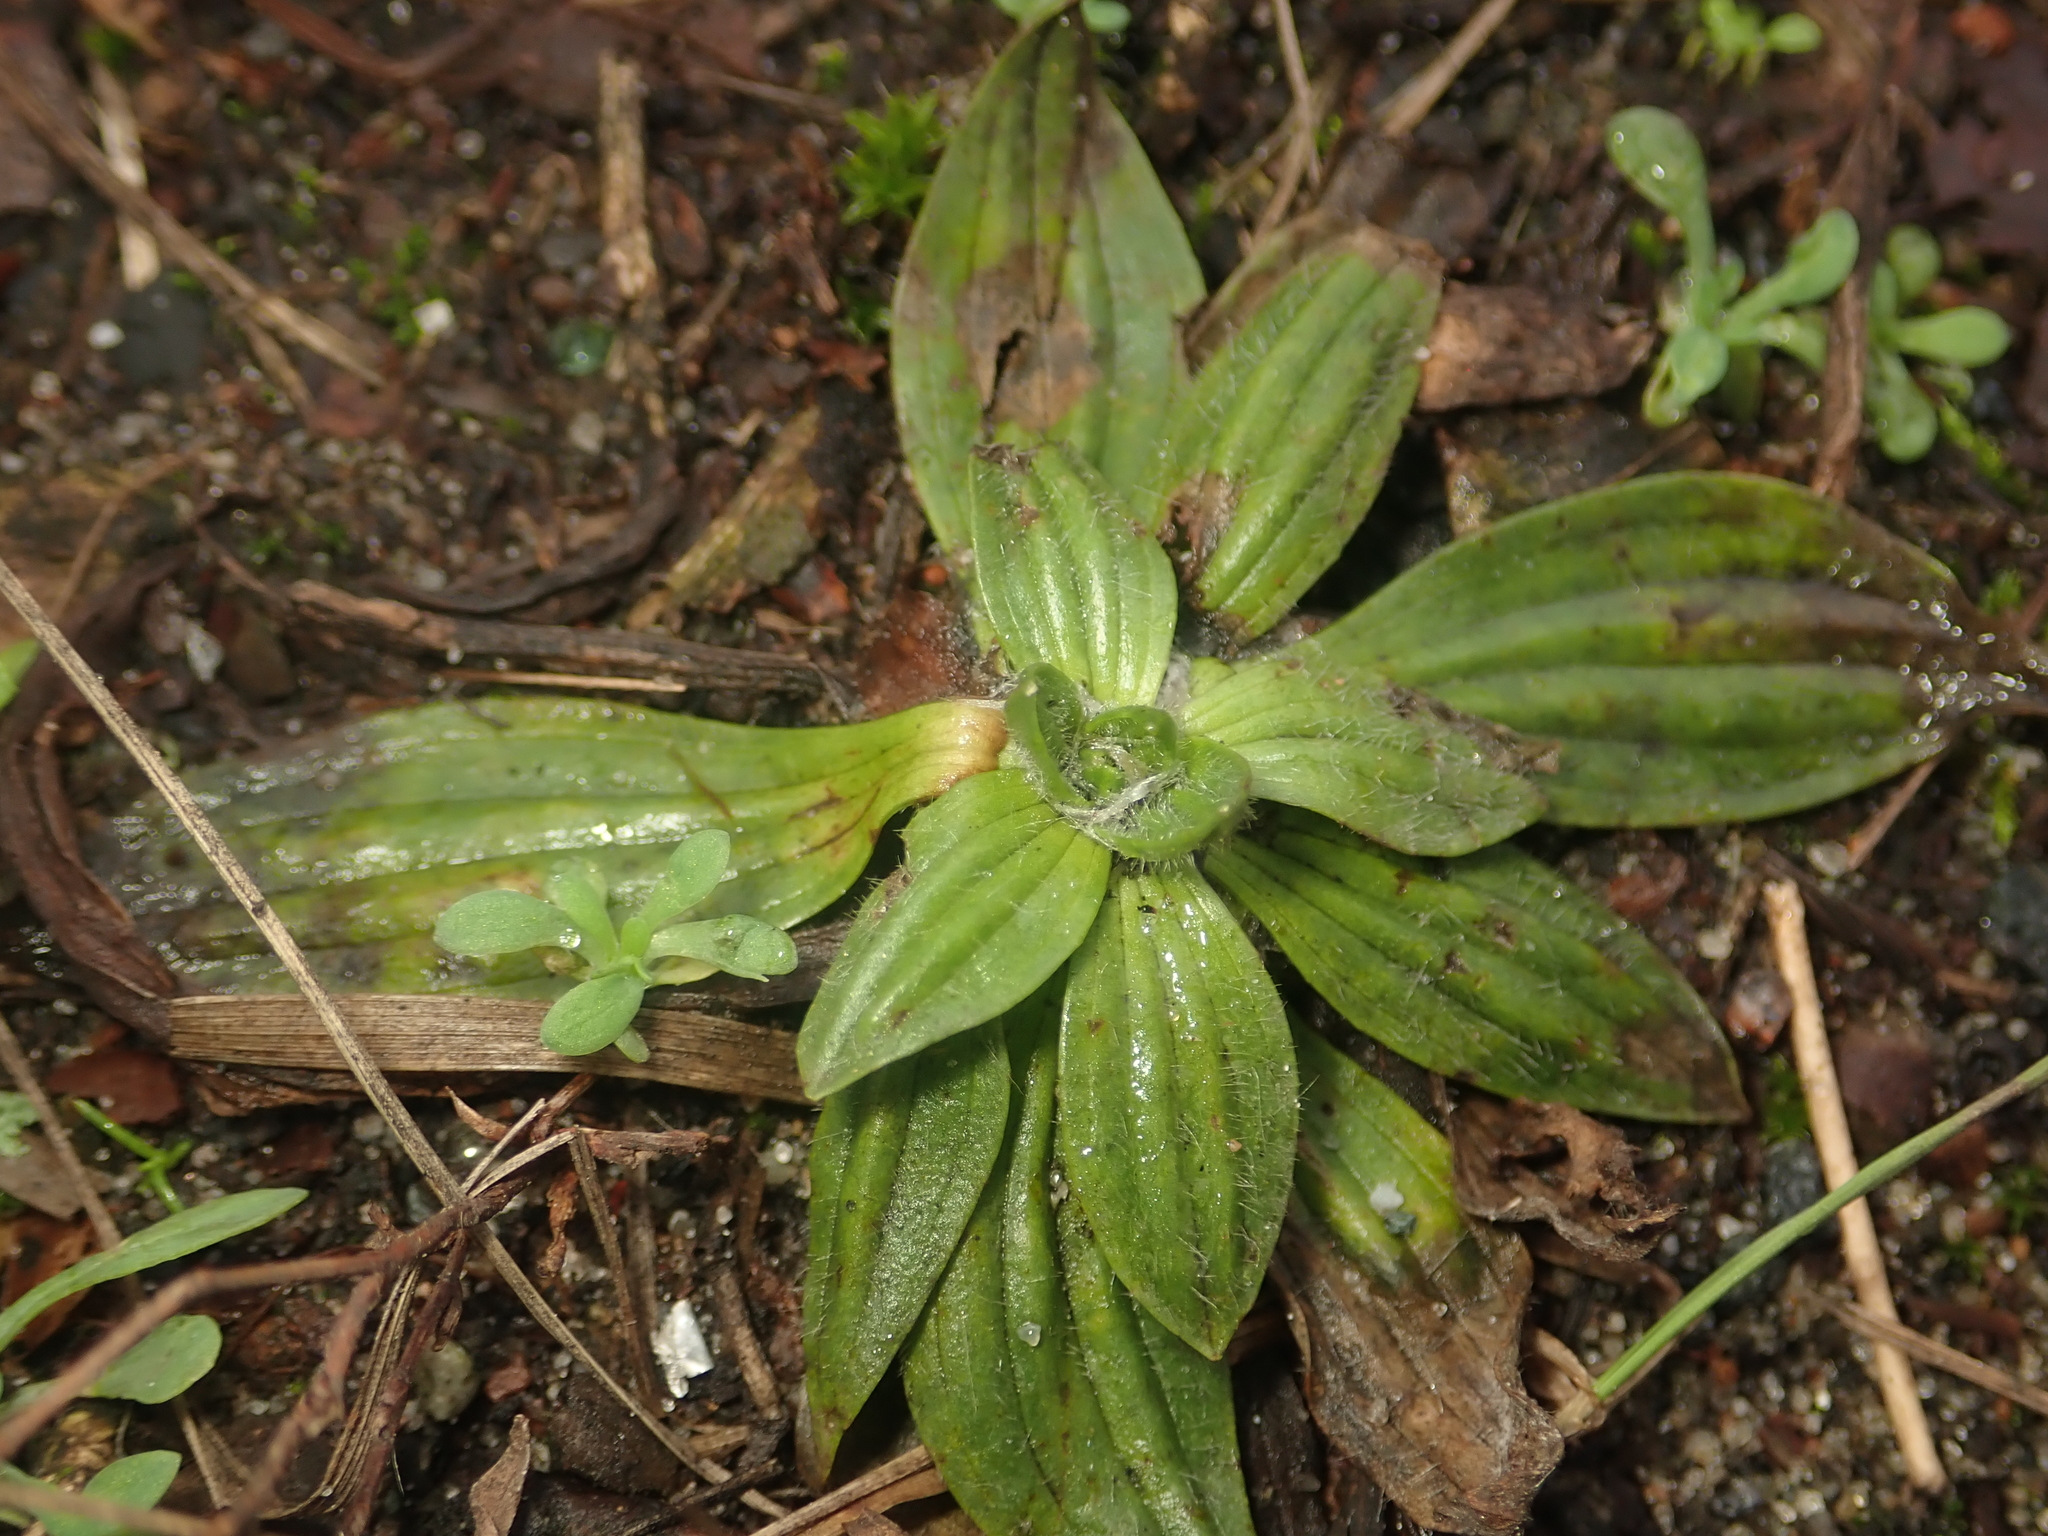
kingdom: Plantae
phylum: Tracheophyta
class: Magnoliopsida
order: Lamiales
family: Plantaginaceae
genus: Plantago
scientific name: Plantago lanceolata
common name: Ribwort plantain
